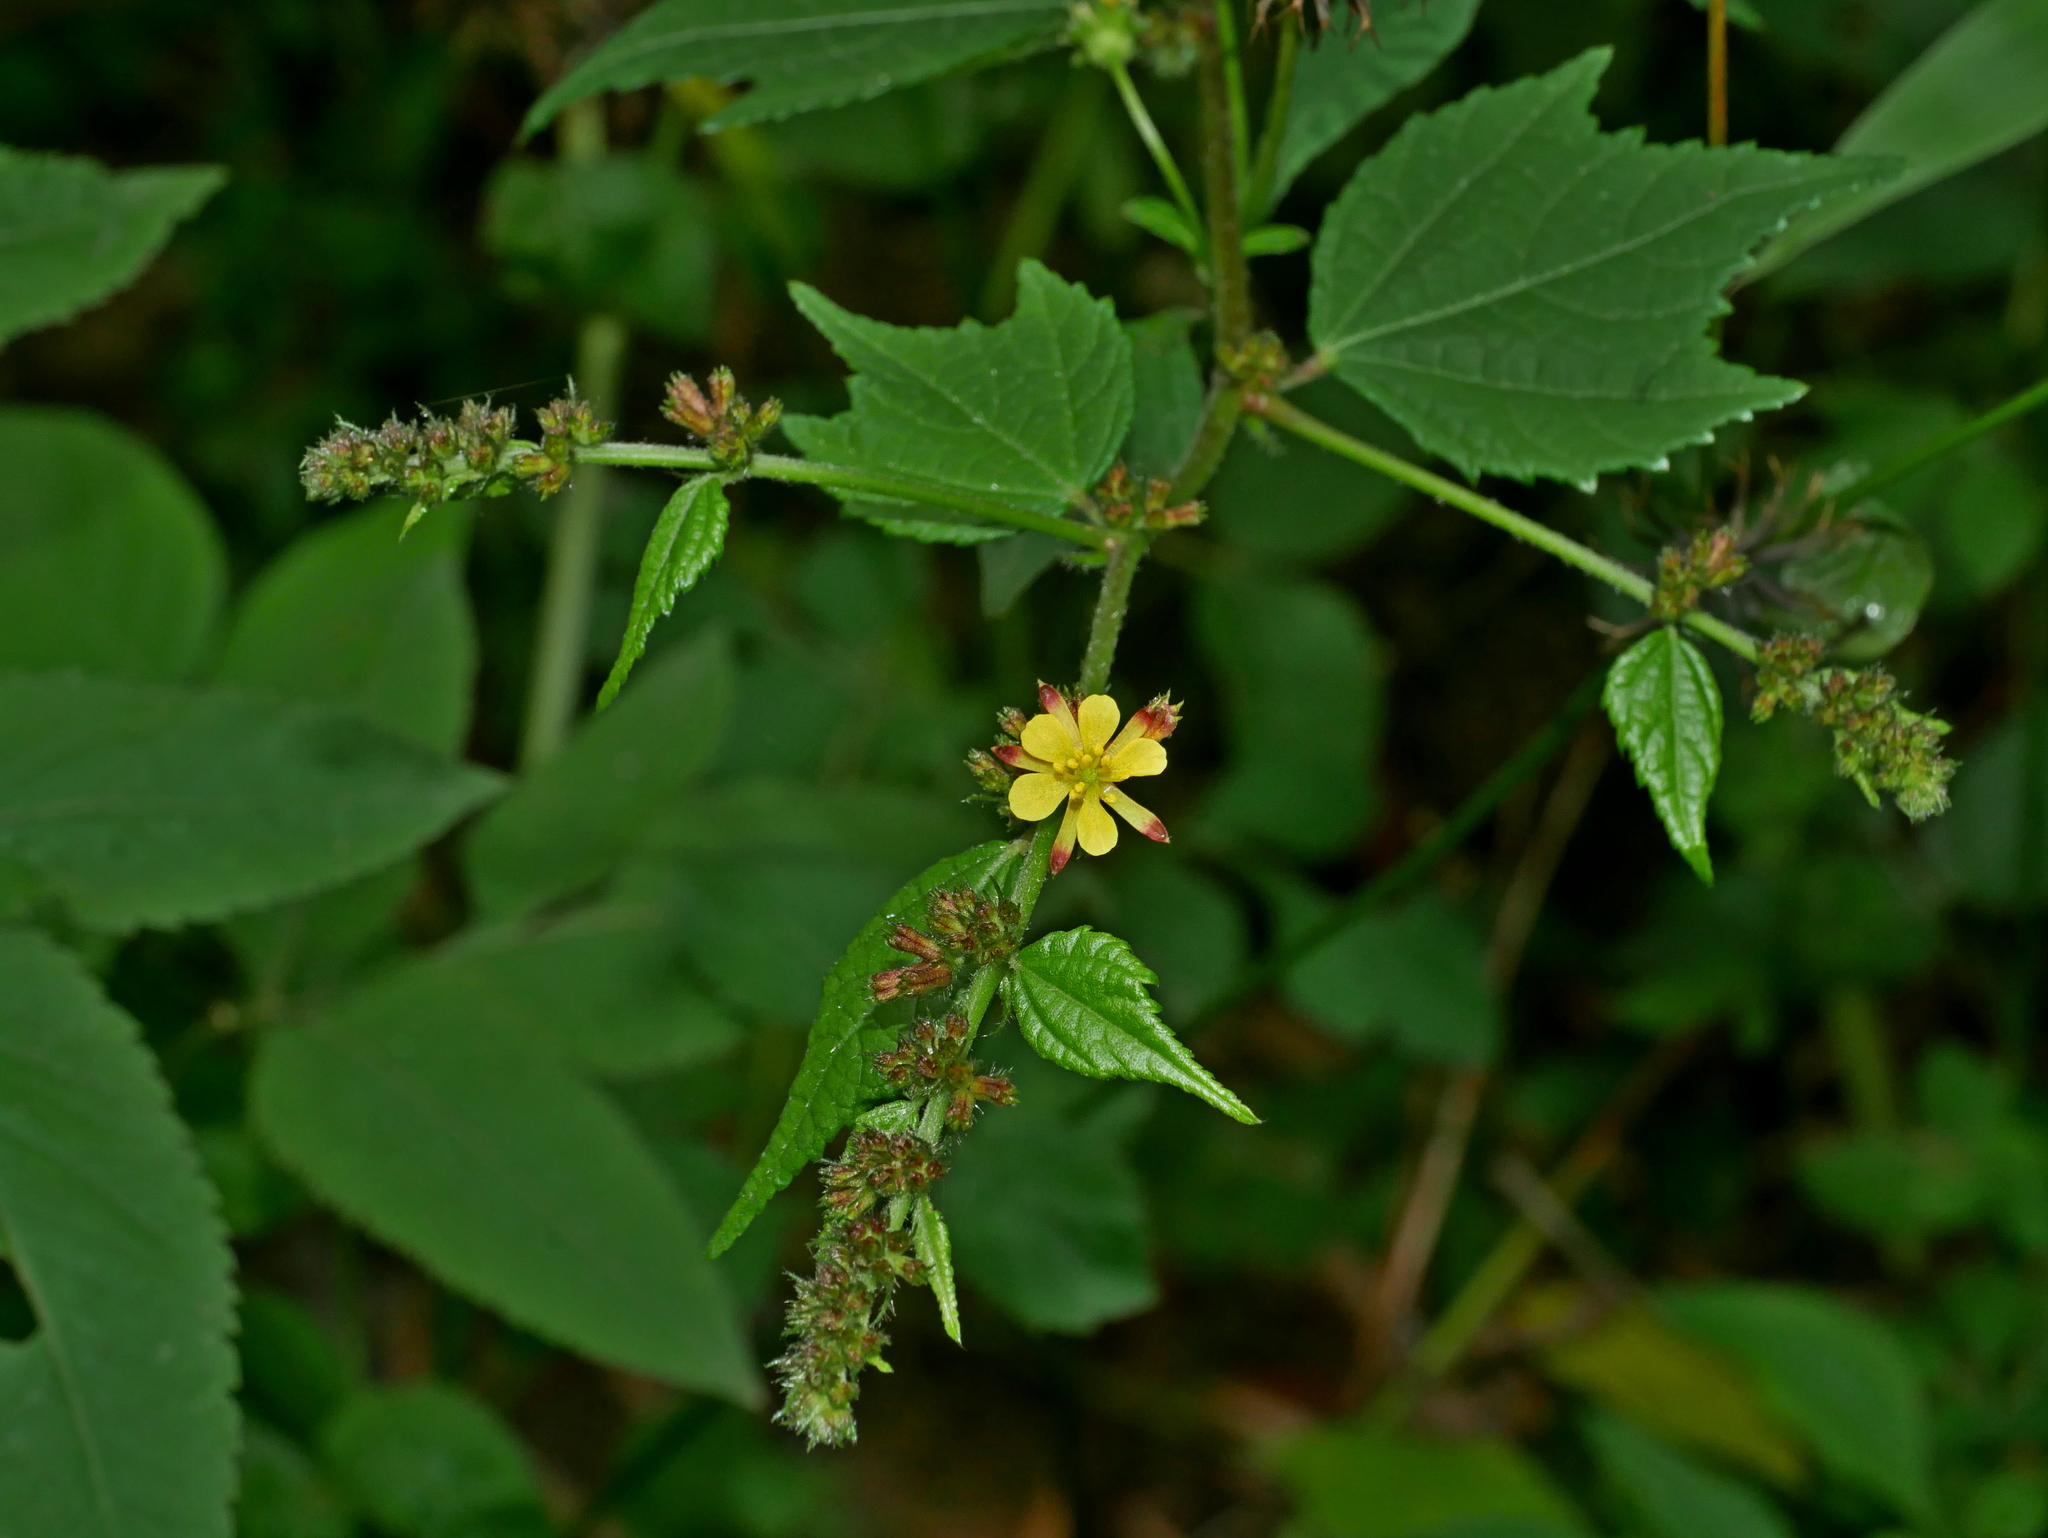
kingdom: Plantae
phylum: Tracheophyta
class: Magnoliopsida
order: Malvales
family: Malvaceae
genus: Triumfetta
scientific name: Triumfetta rhomboidea
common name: Diamond burbark
